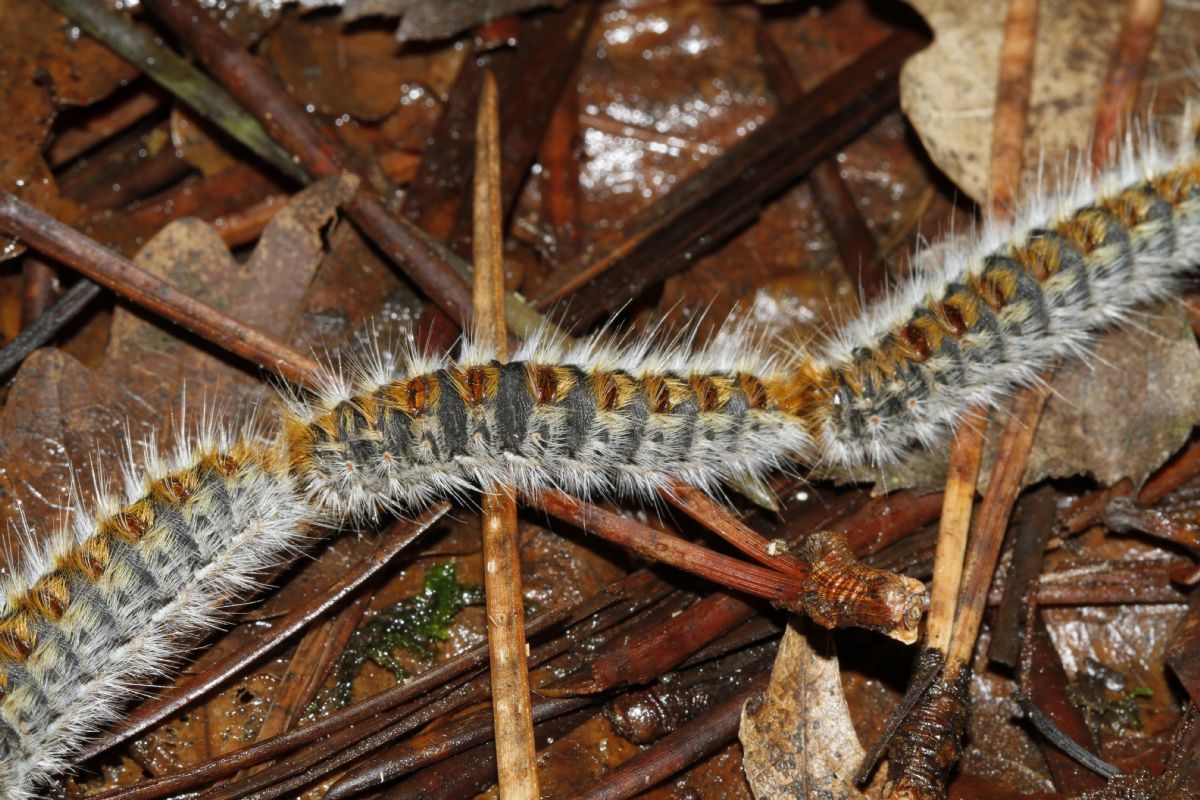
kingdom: Animalia
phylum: Arthropoda
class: Insecta
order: Lepidoptera
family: Notodontidae
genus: Thaumetopoea
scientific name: Thaumetopoea pityocampa
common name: Pine processionary
